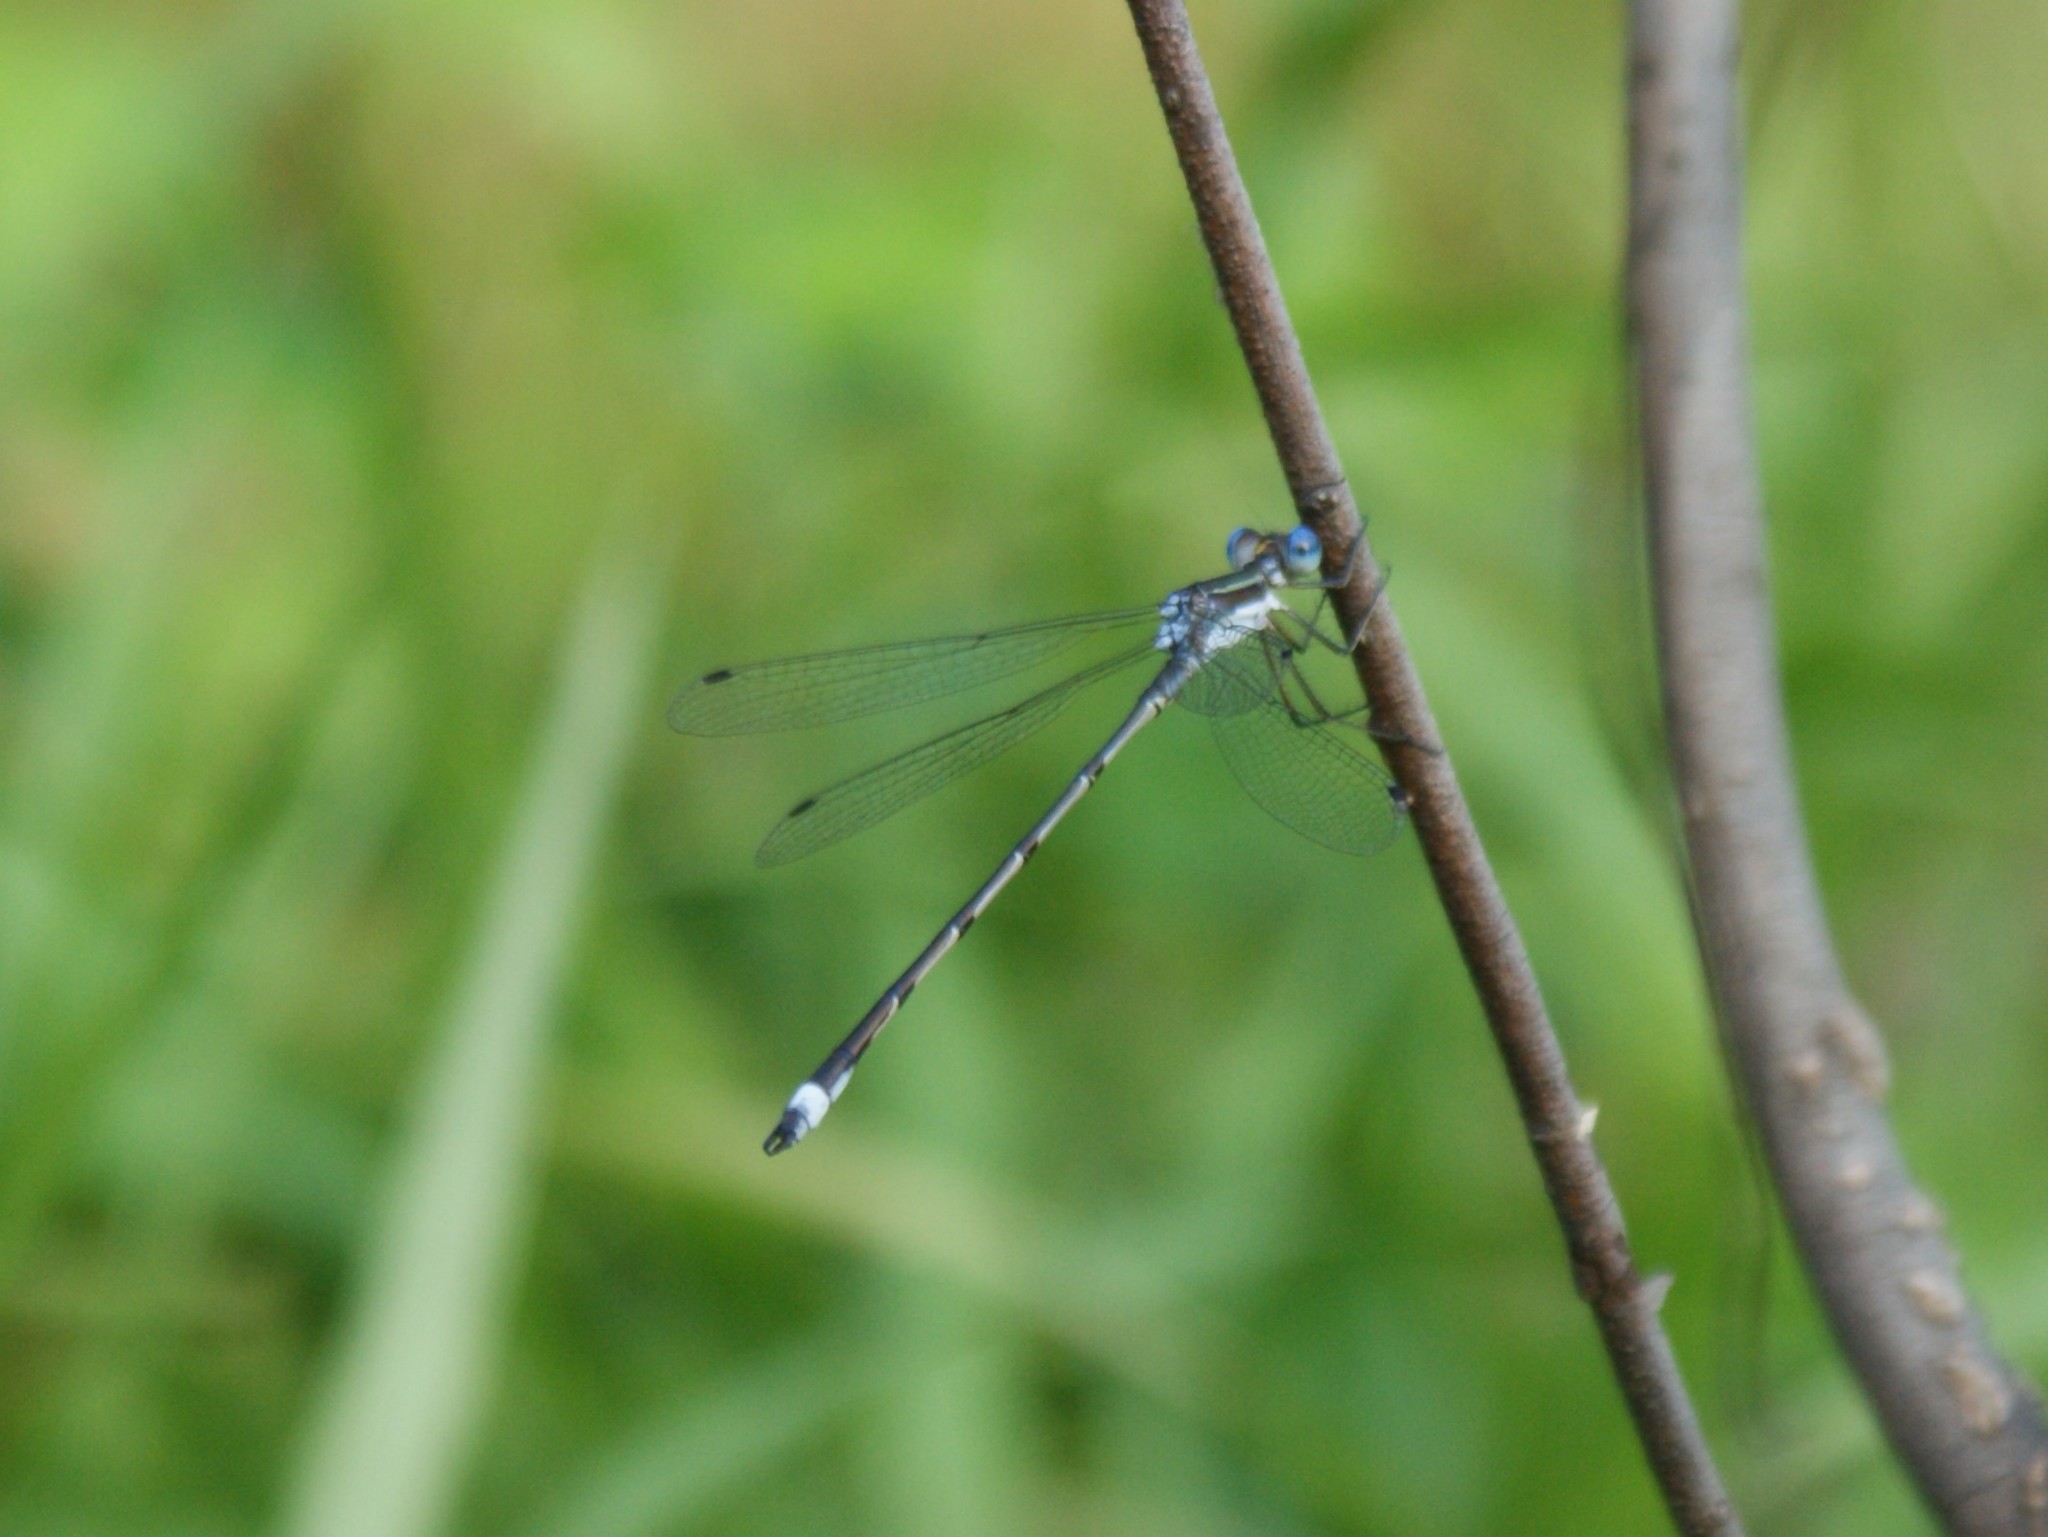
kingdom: Animalia
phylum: Arthropoda
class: Insecta
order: Odonata
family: Lestidae
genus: Lestes
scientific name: Lestes australis
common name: Southern spreadwing
